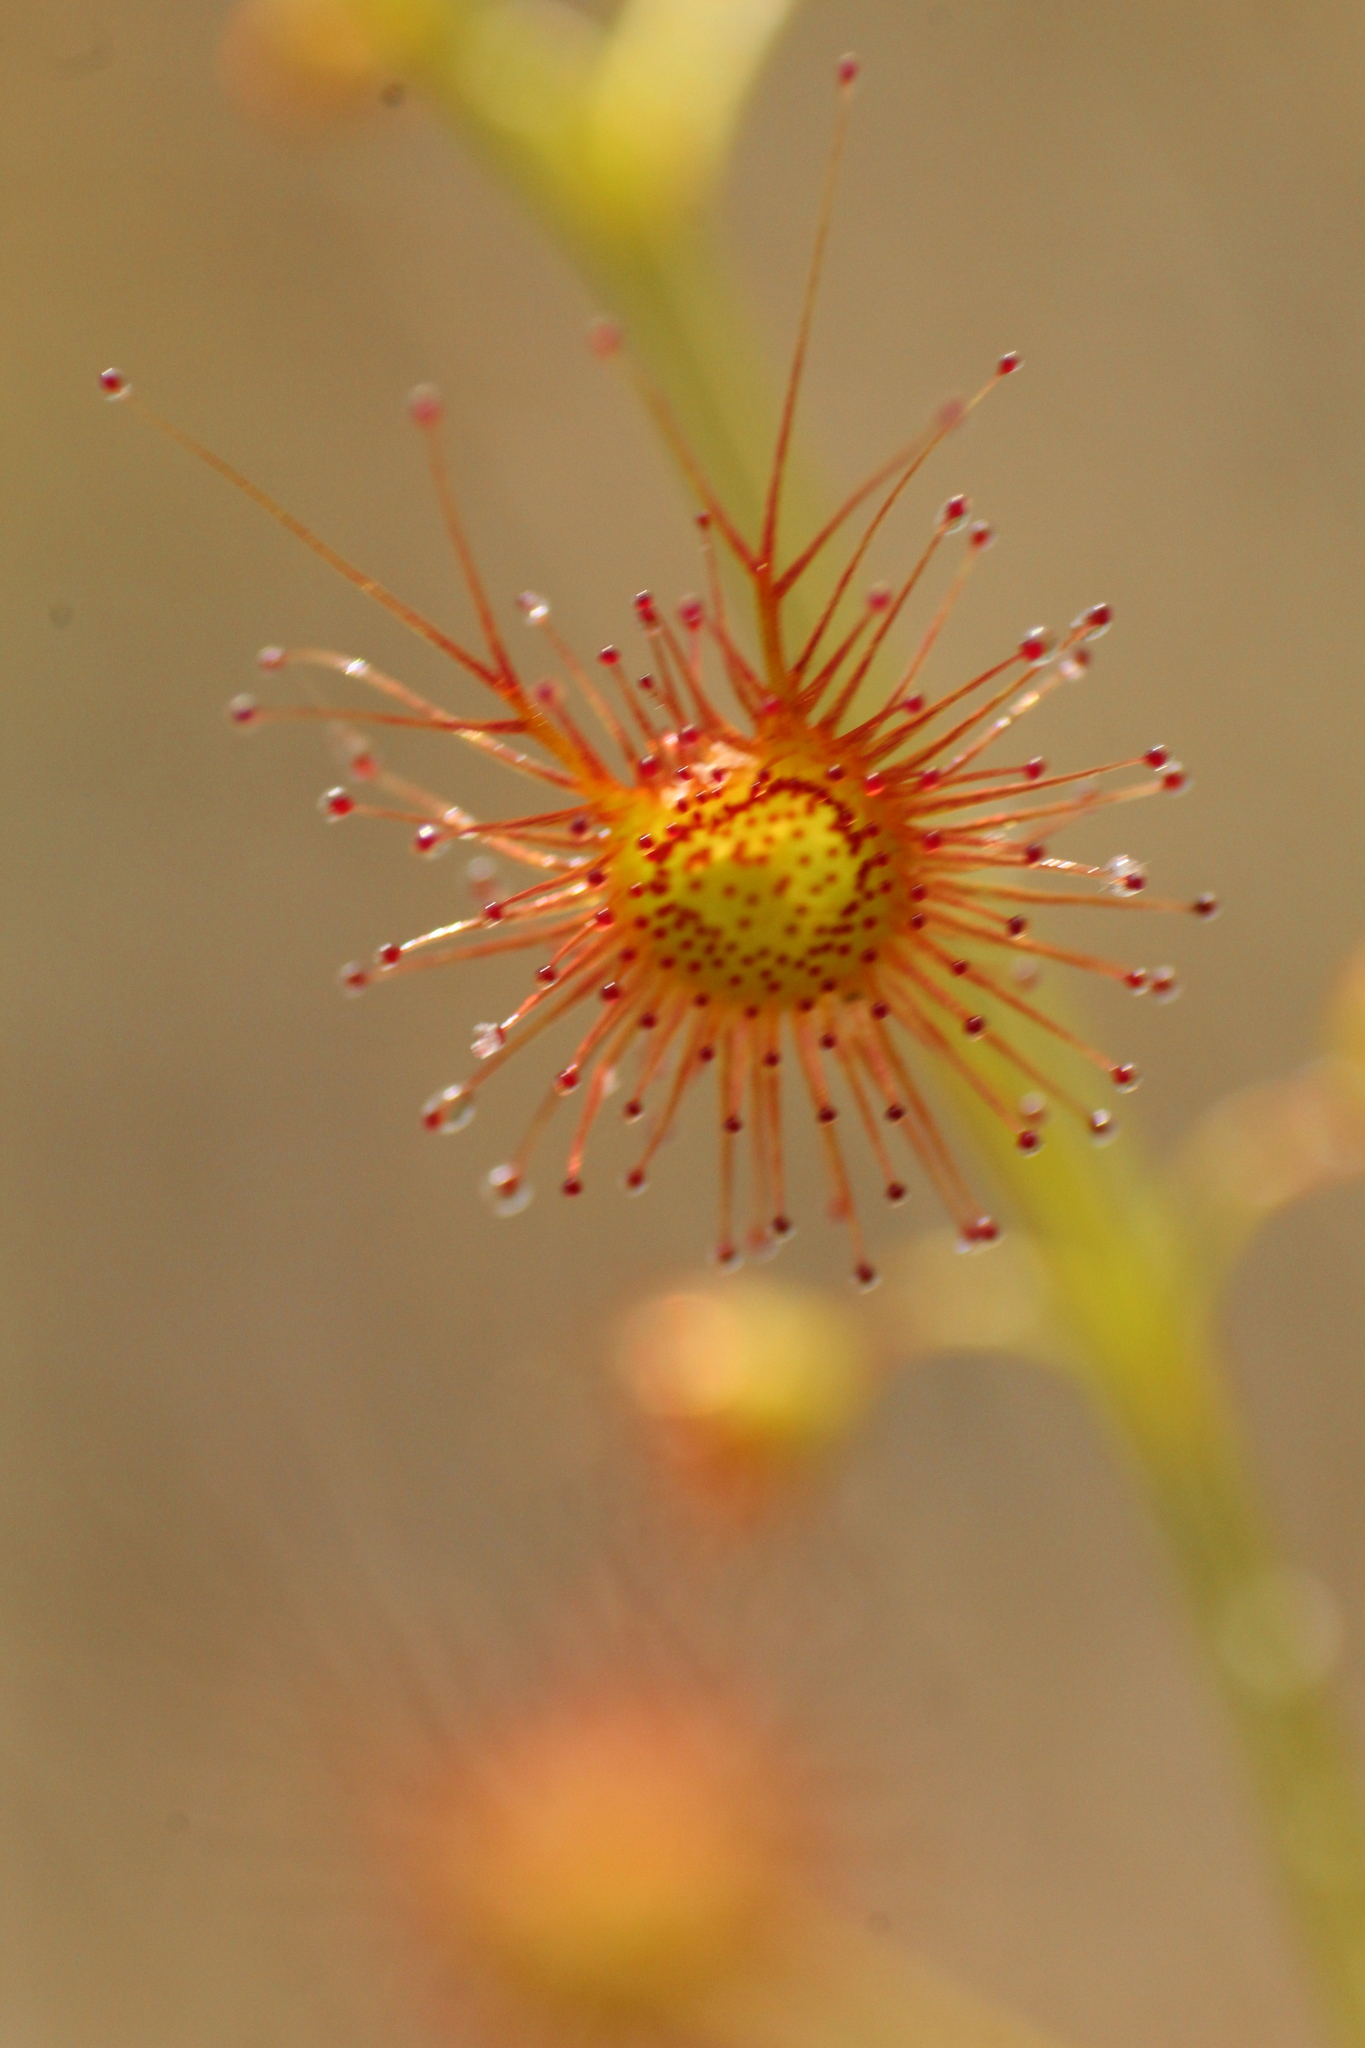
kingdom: Plantae
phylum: Tracheophyta
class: Magnoliopsida
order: Caryophyllales
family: Droseraceae
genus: Drosera
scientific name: Drosera sulphurea
